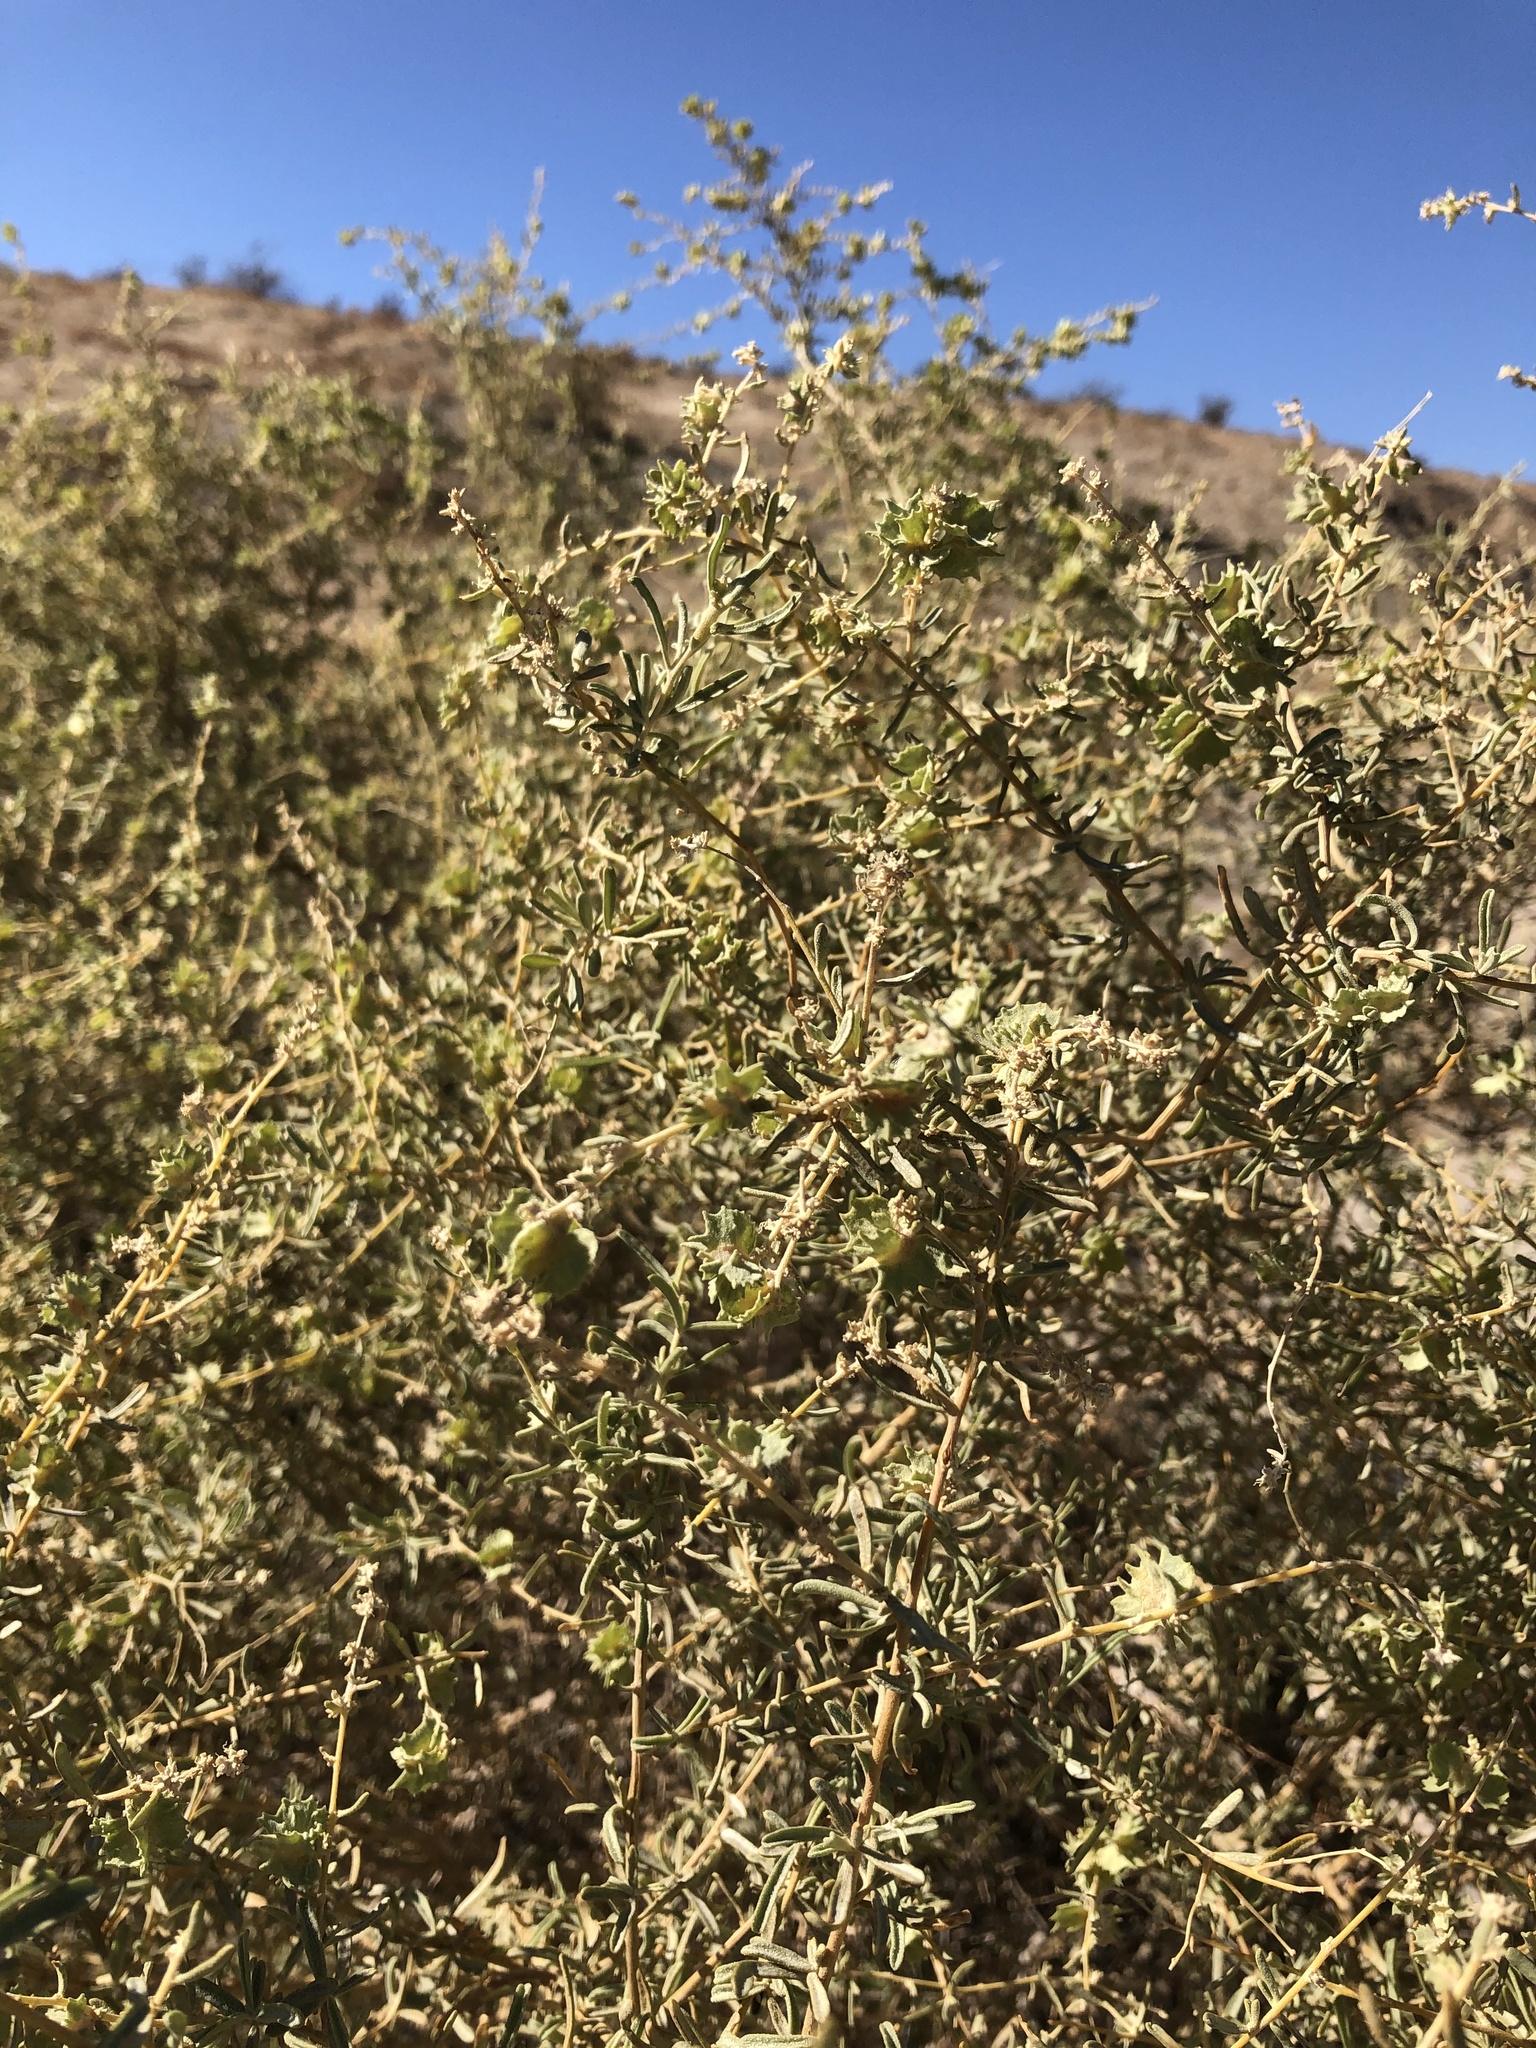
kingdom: Plantae
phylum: Tracheophyta
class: Magnoliopsida
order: Caryophyllales
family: Amaranthaceae
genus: Atriplex
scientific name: Atriplex canescens
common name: Four-wing saltbush
